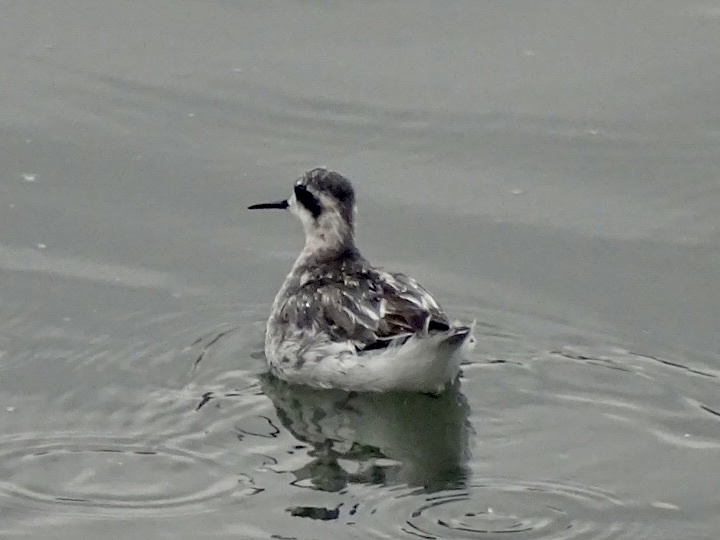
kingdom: Animalia
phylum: Chordata
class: Aves
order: Charadriiformes
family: Scolopacidae
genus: Phalaropus
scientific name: Phalaropus lobatus
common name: Red-necked phalarope
